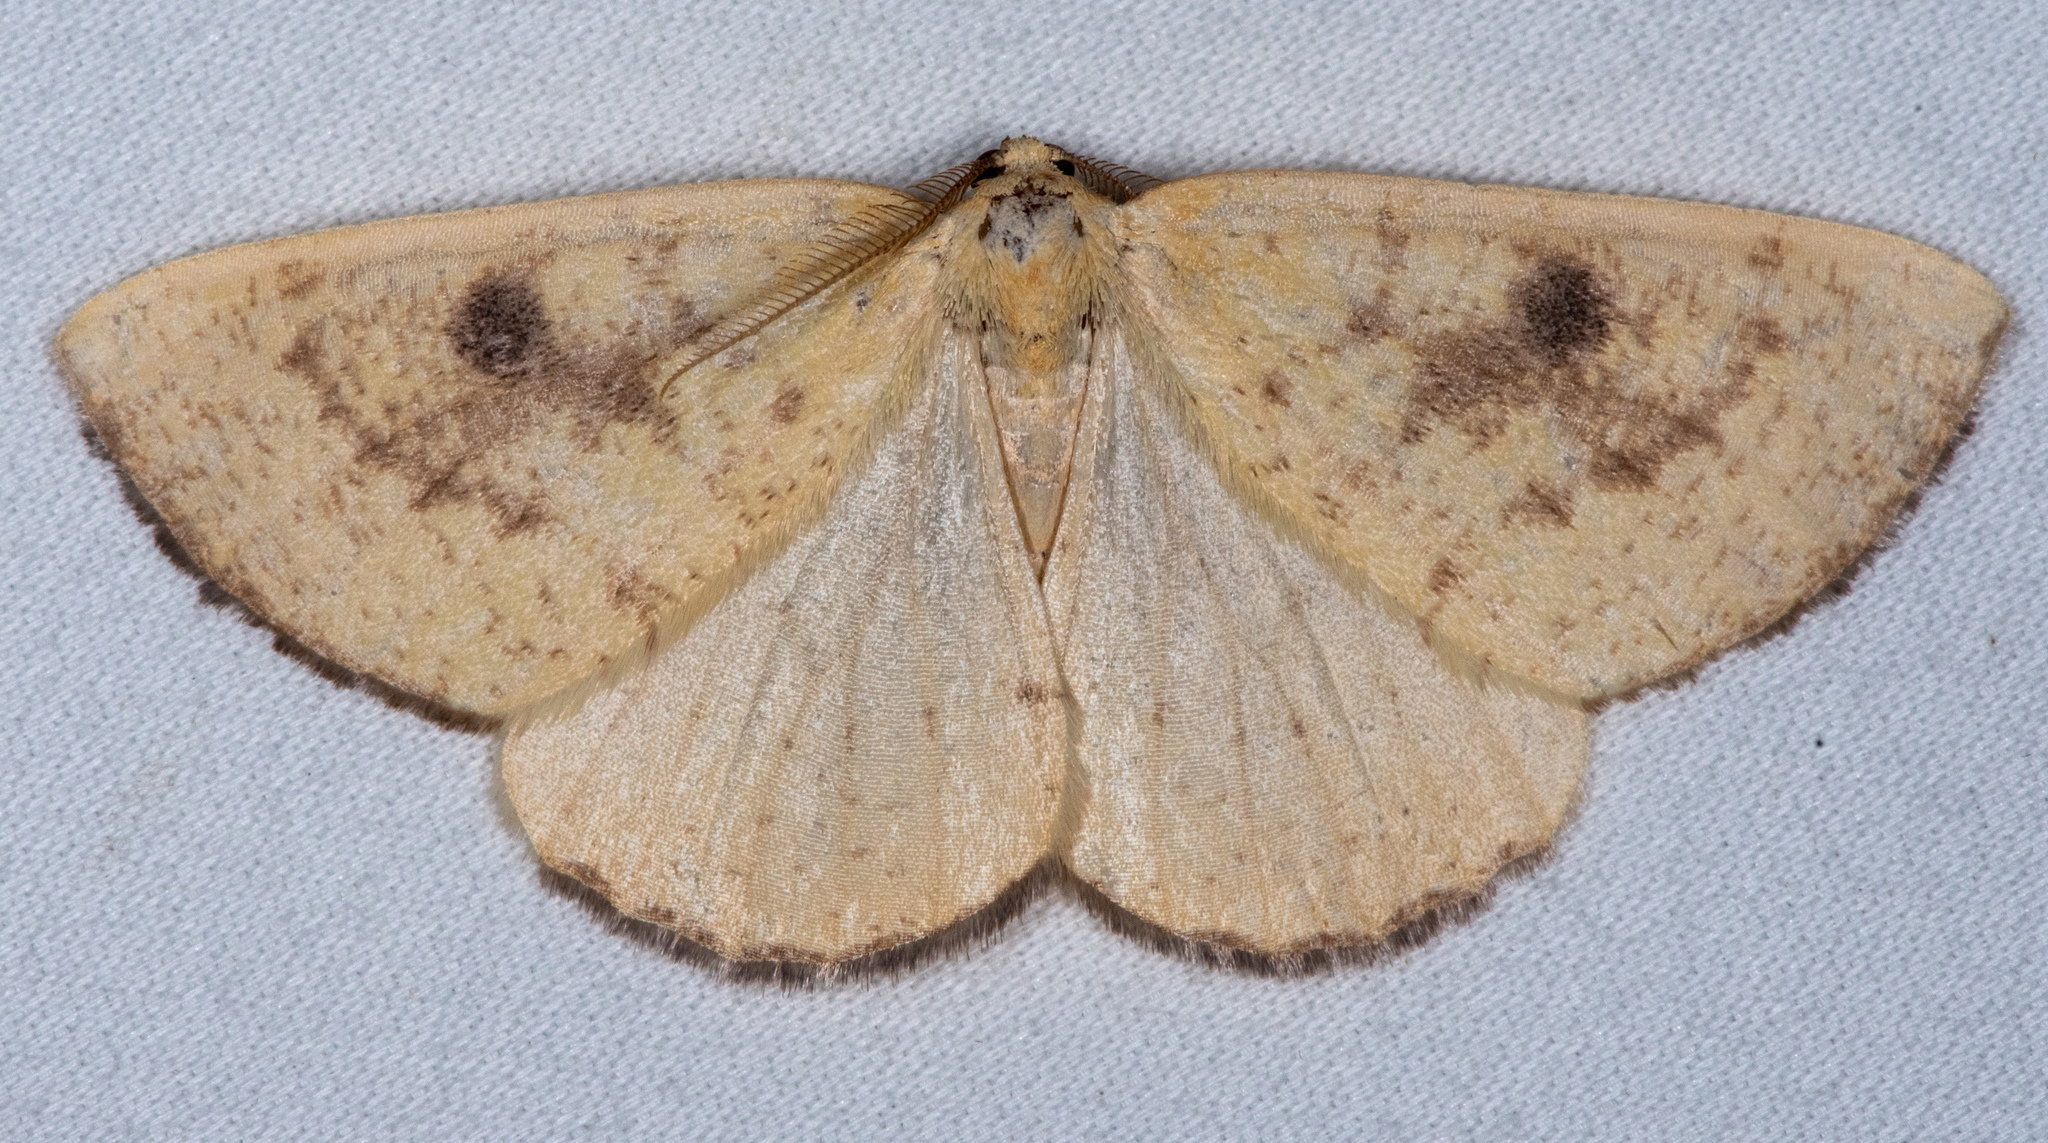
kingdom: Animalia
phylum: Arthropoda
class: Insecta
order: Lepidoptera
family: Geometridae
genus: Hesperumia
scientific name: Hesperumia sulphuraria
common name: Sulphur moth
